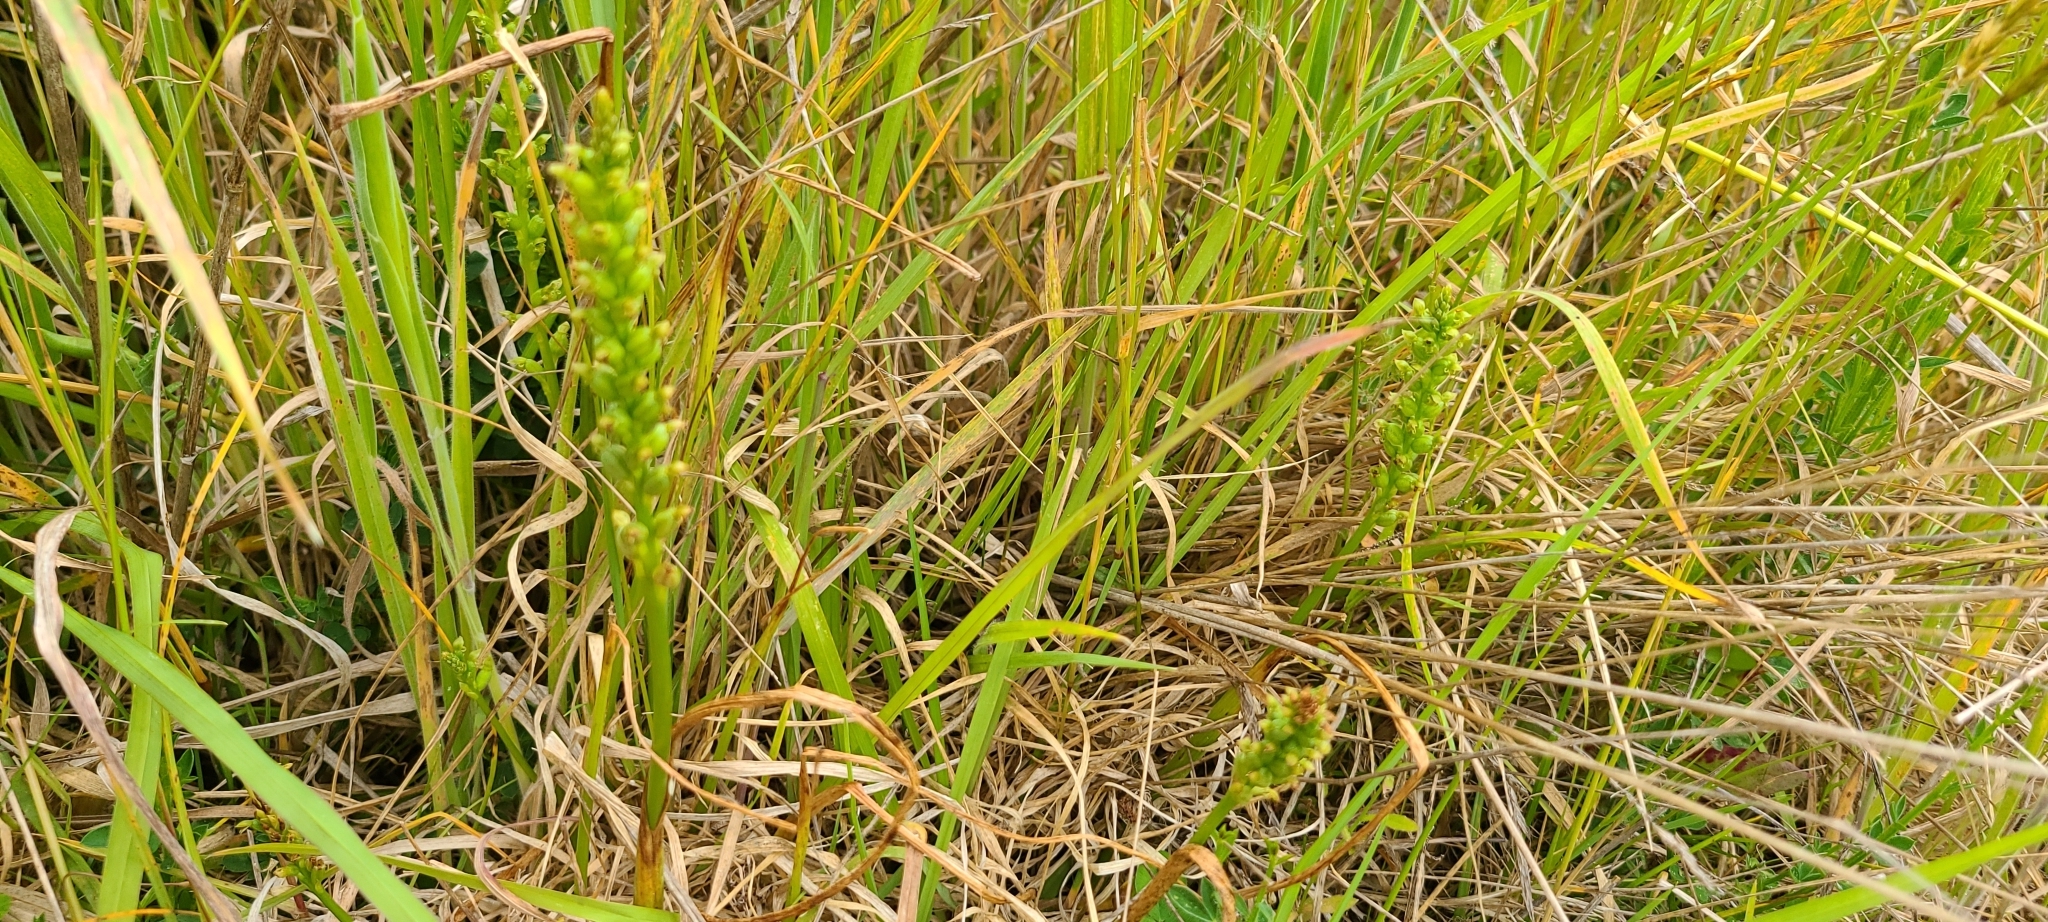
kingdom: Plantae
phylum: Tracheophyta
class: Liliopsida
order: Asparagales
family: Orchidaceae
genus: Microtis
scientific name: Microtis unifolia
